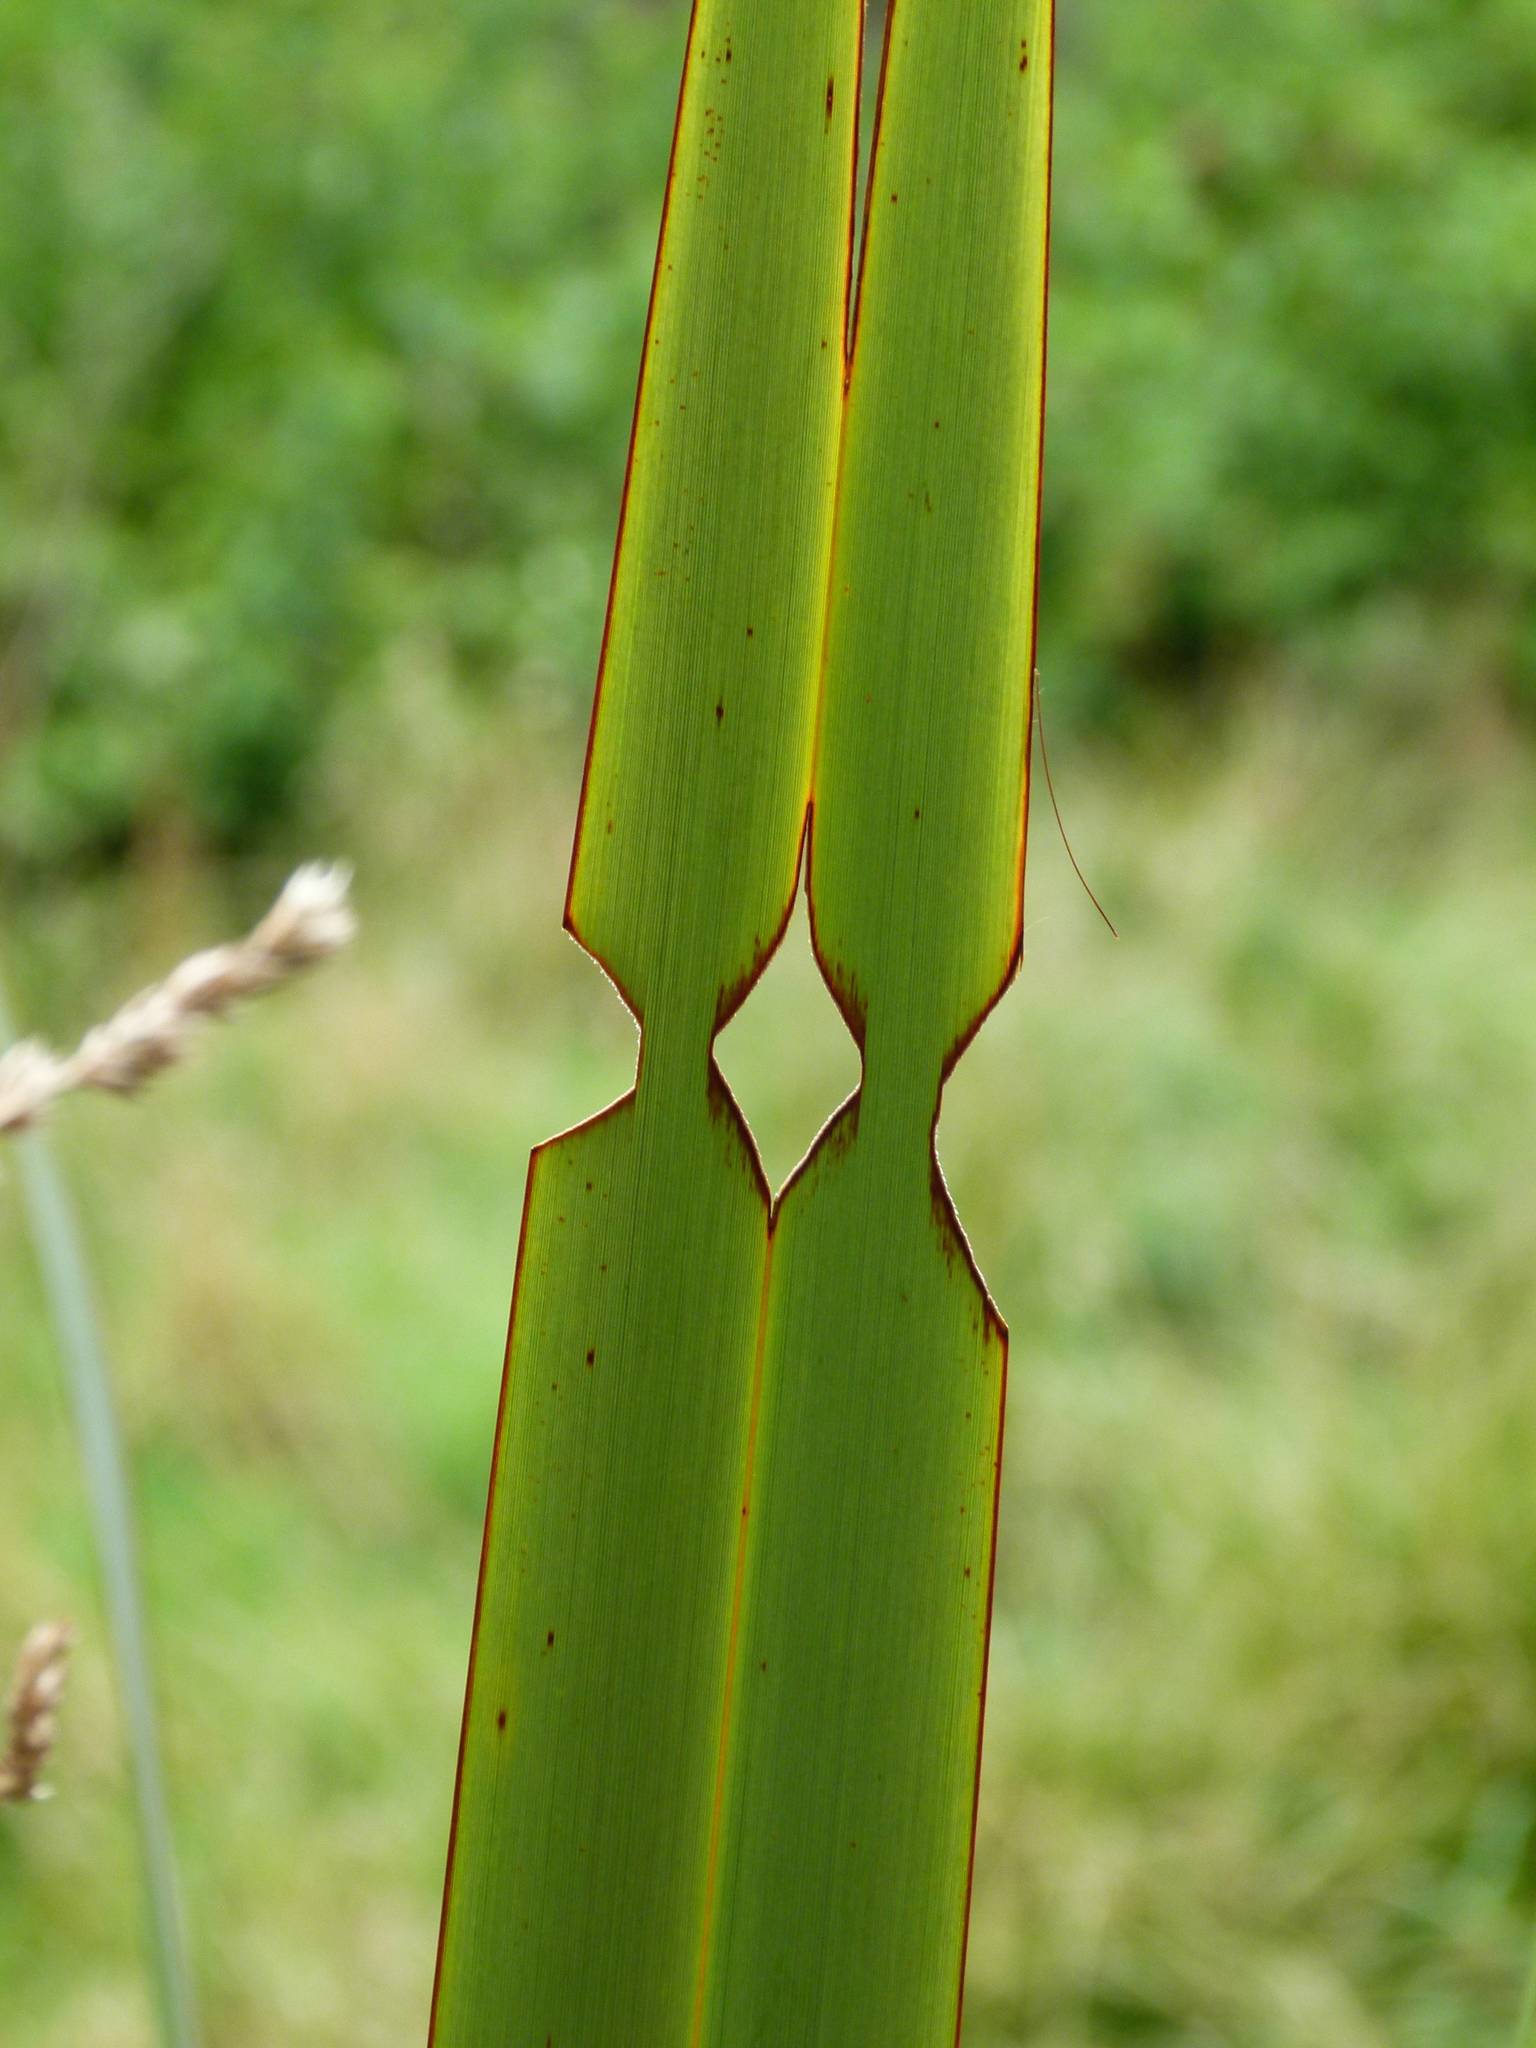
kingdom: Animalia
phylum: Arthropoda
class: Insecta
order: Lepidoptera
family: Noctuidae
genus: Ichneutica
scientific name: Ichneutica
